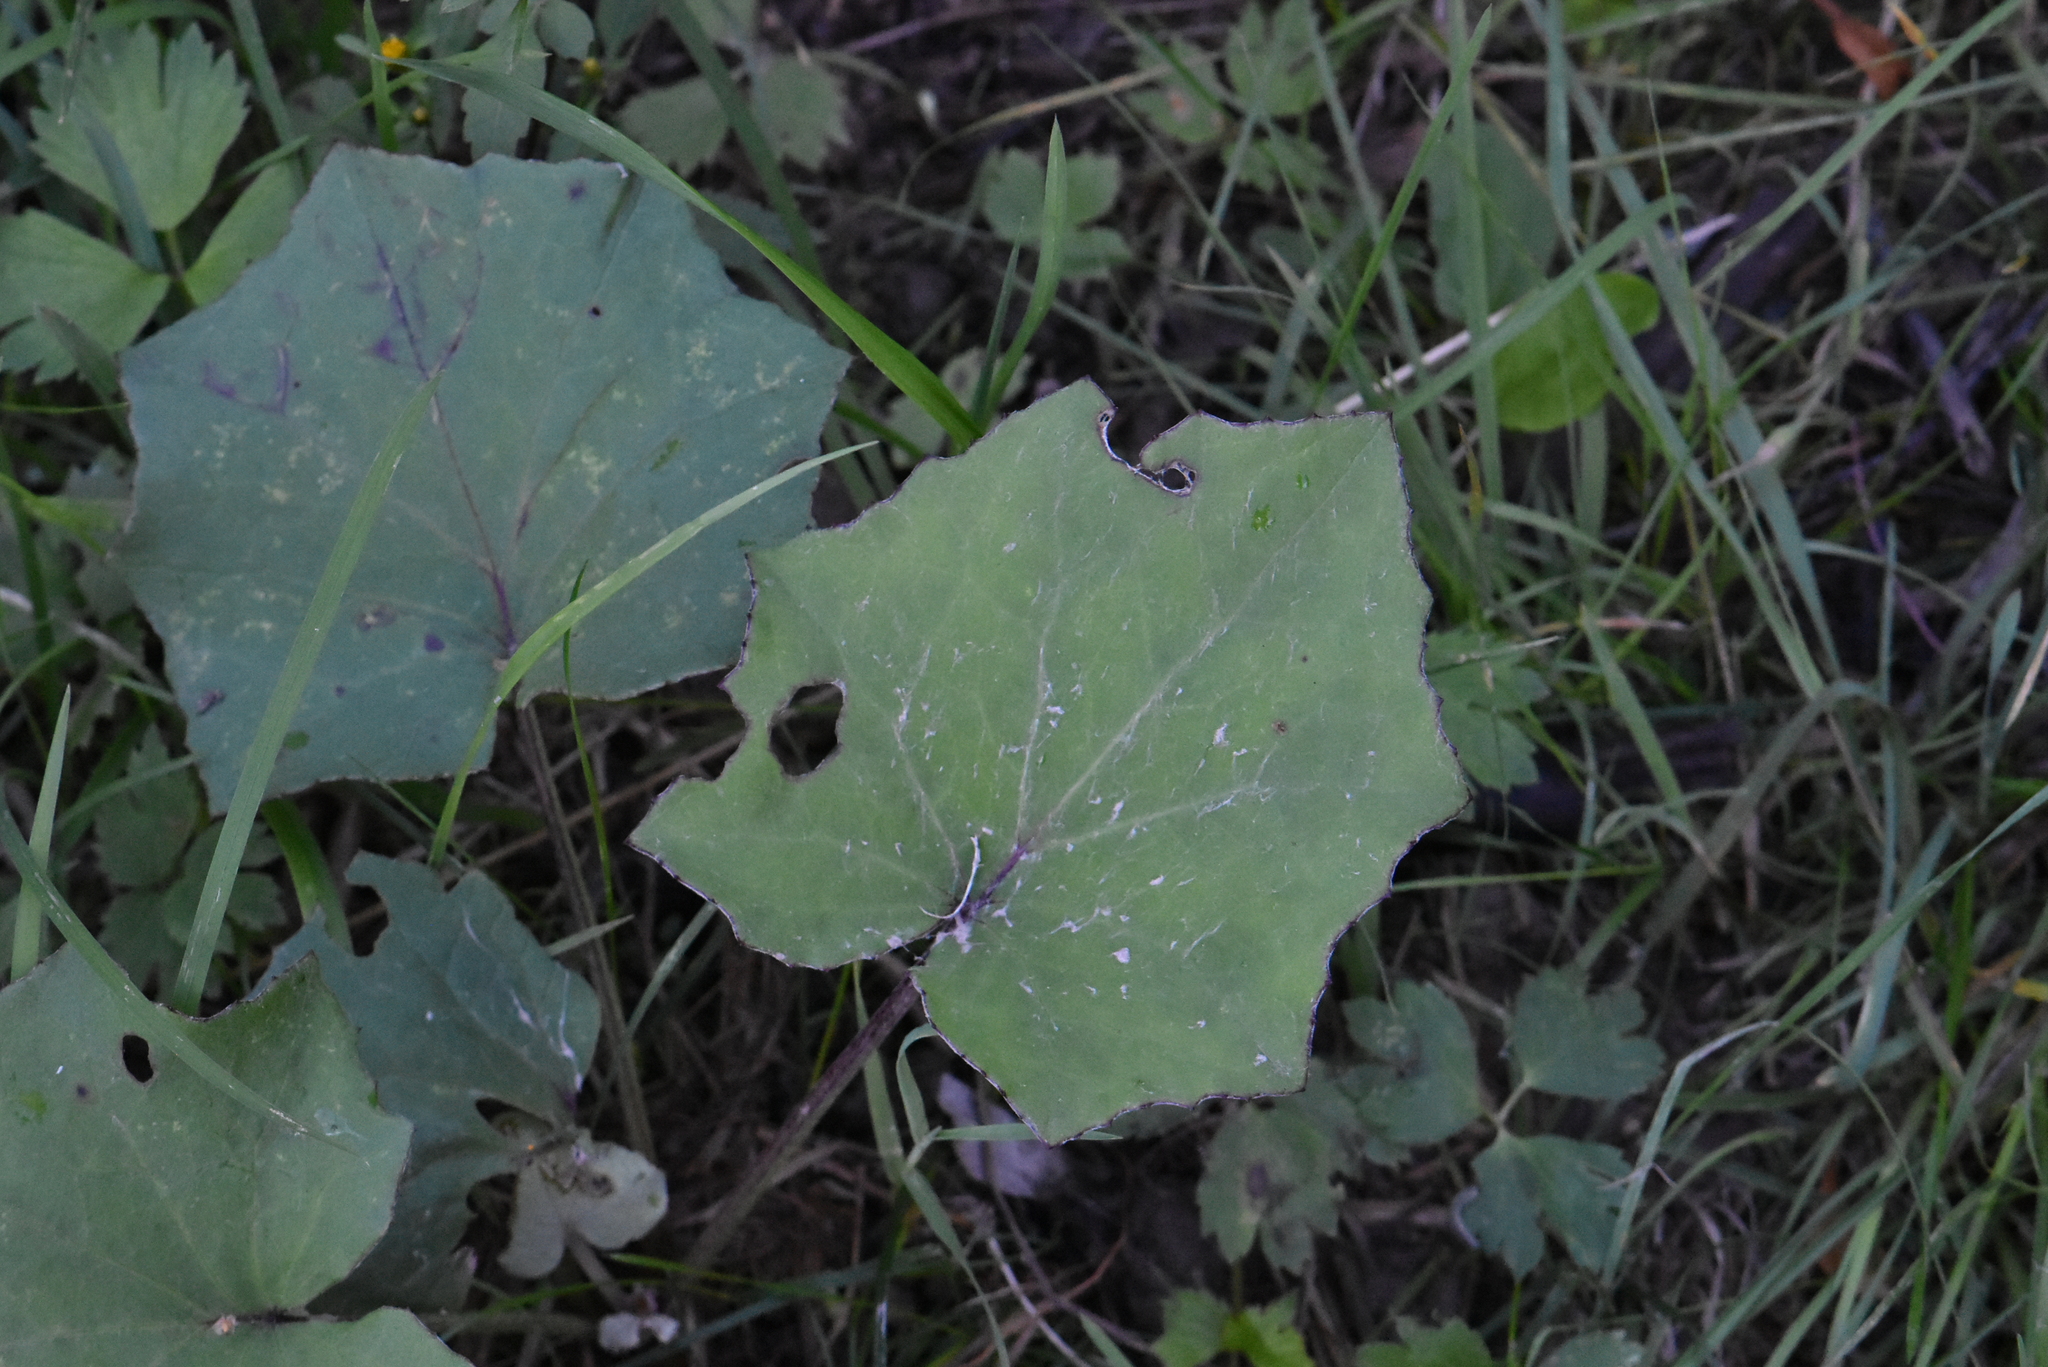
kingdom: Plantae
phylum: Tracheophyta
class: Magnoliopsida
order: Asterales
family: Asteraceae
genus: Tussilago
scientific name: Tussilago farfara
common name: Coltsfoot
